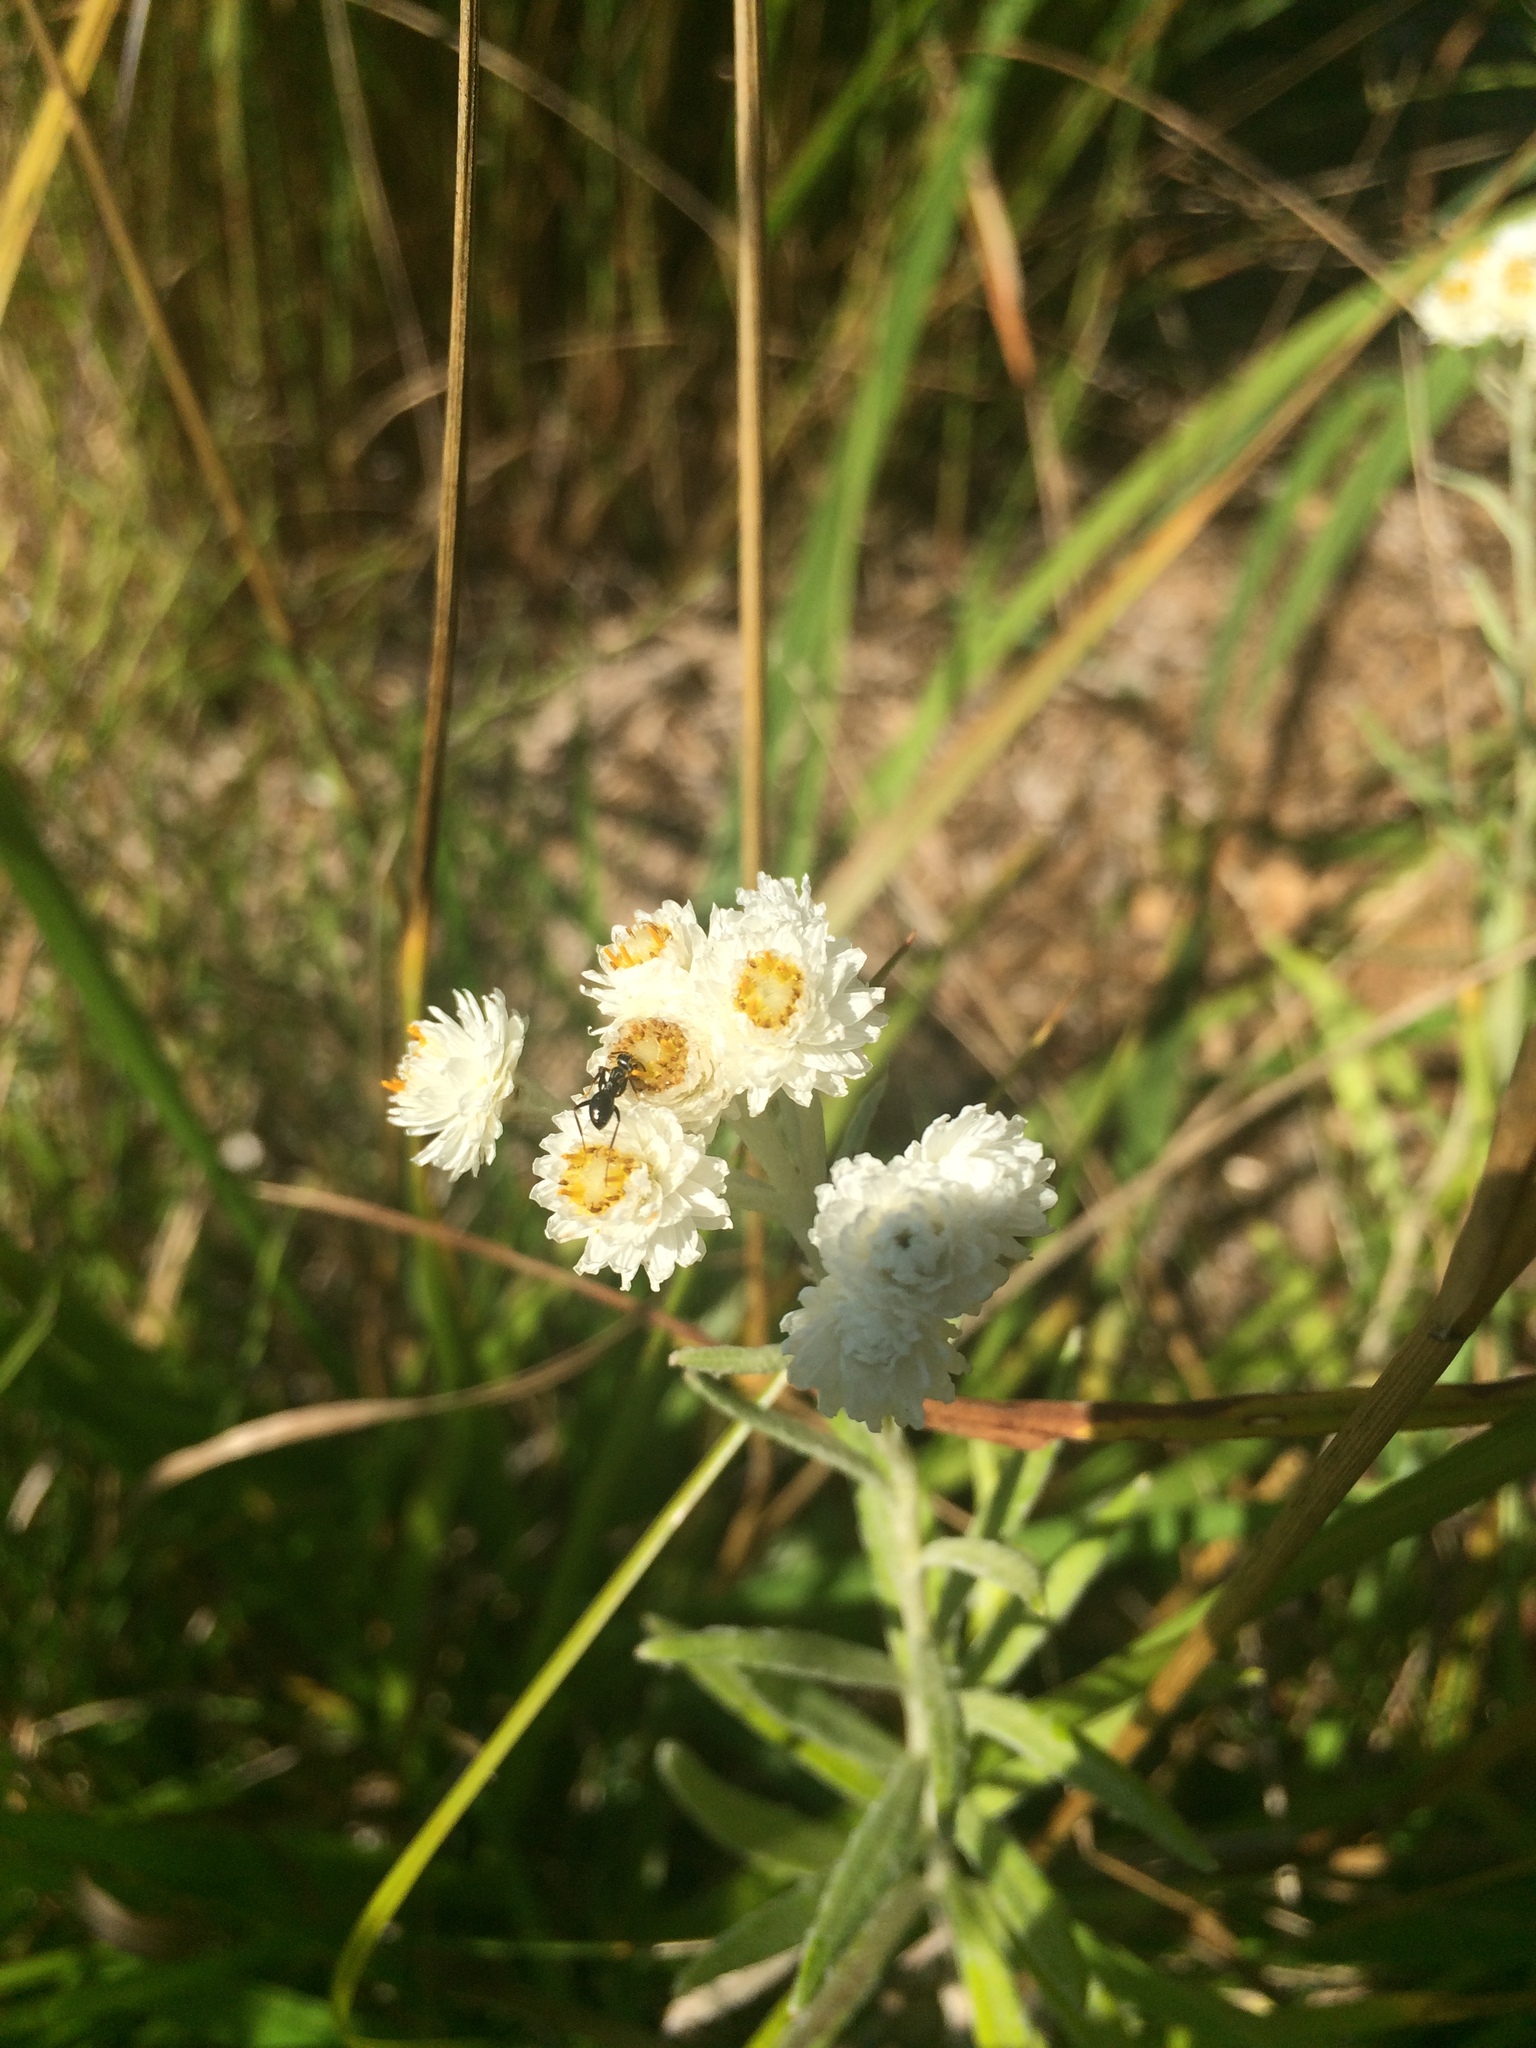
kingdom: Plantae
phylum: Tracheophyta
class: Magnoliopsida
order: Asterales
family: Asteraceae
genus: Anaphalis
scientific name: Anaphalis margaritacea
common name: Pearly everlasting
